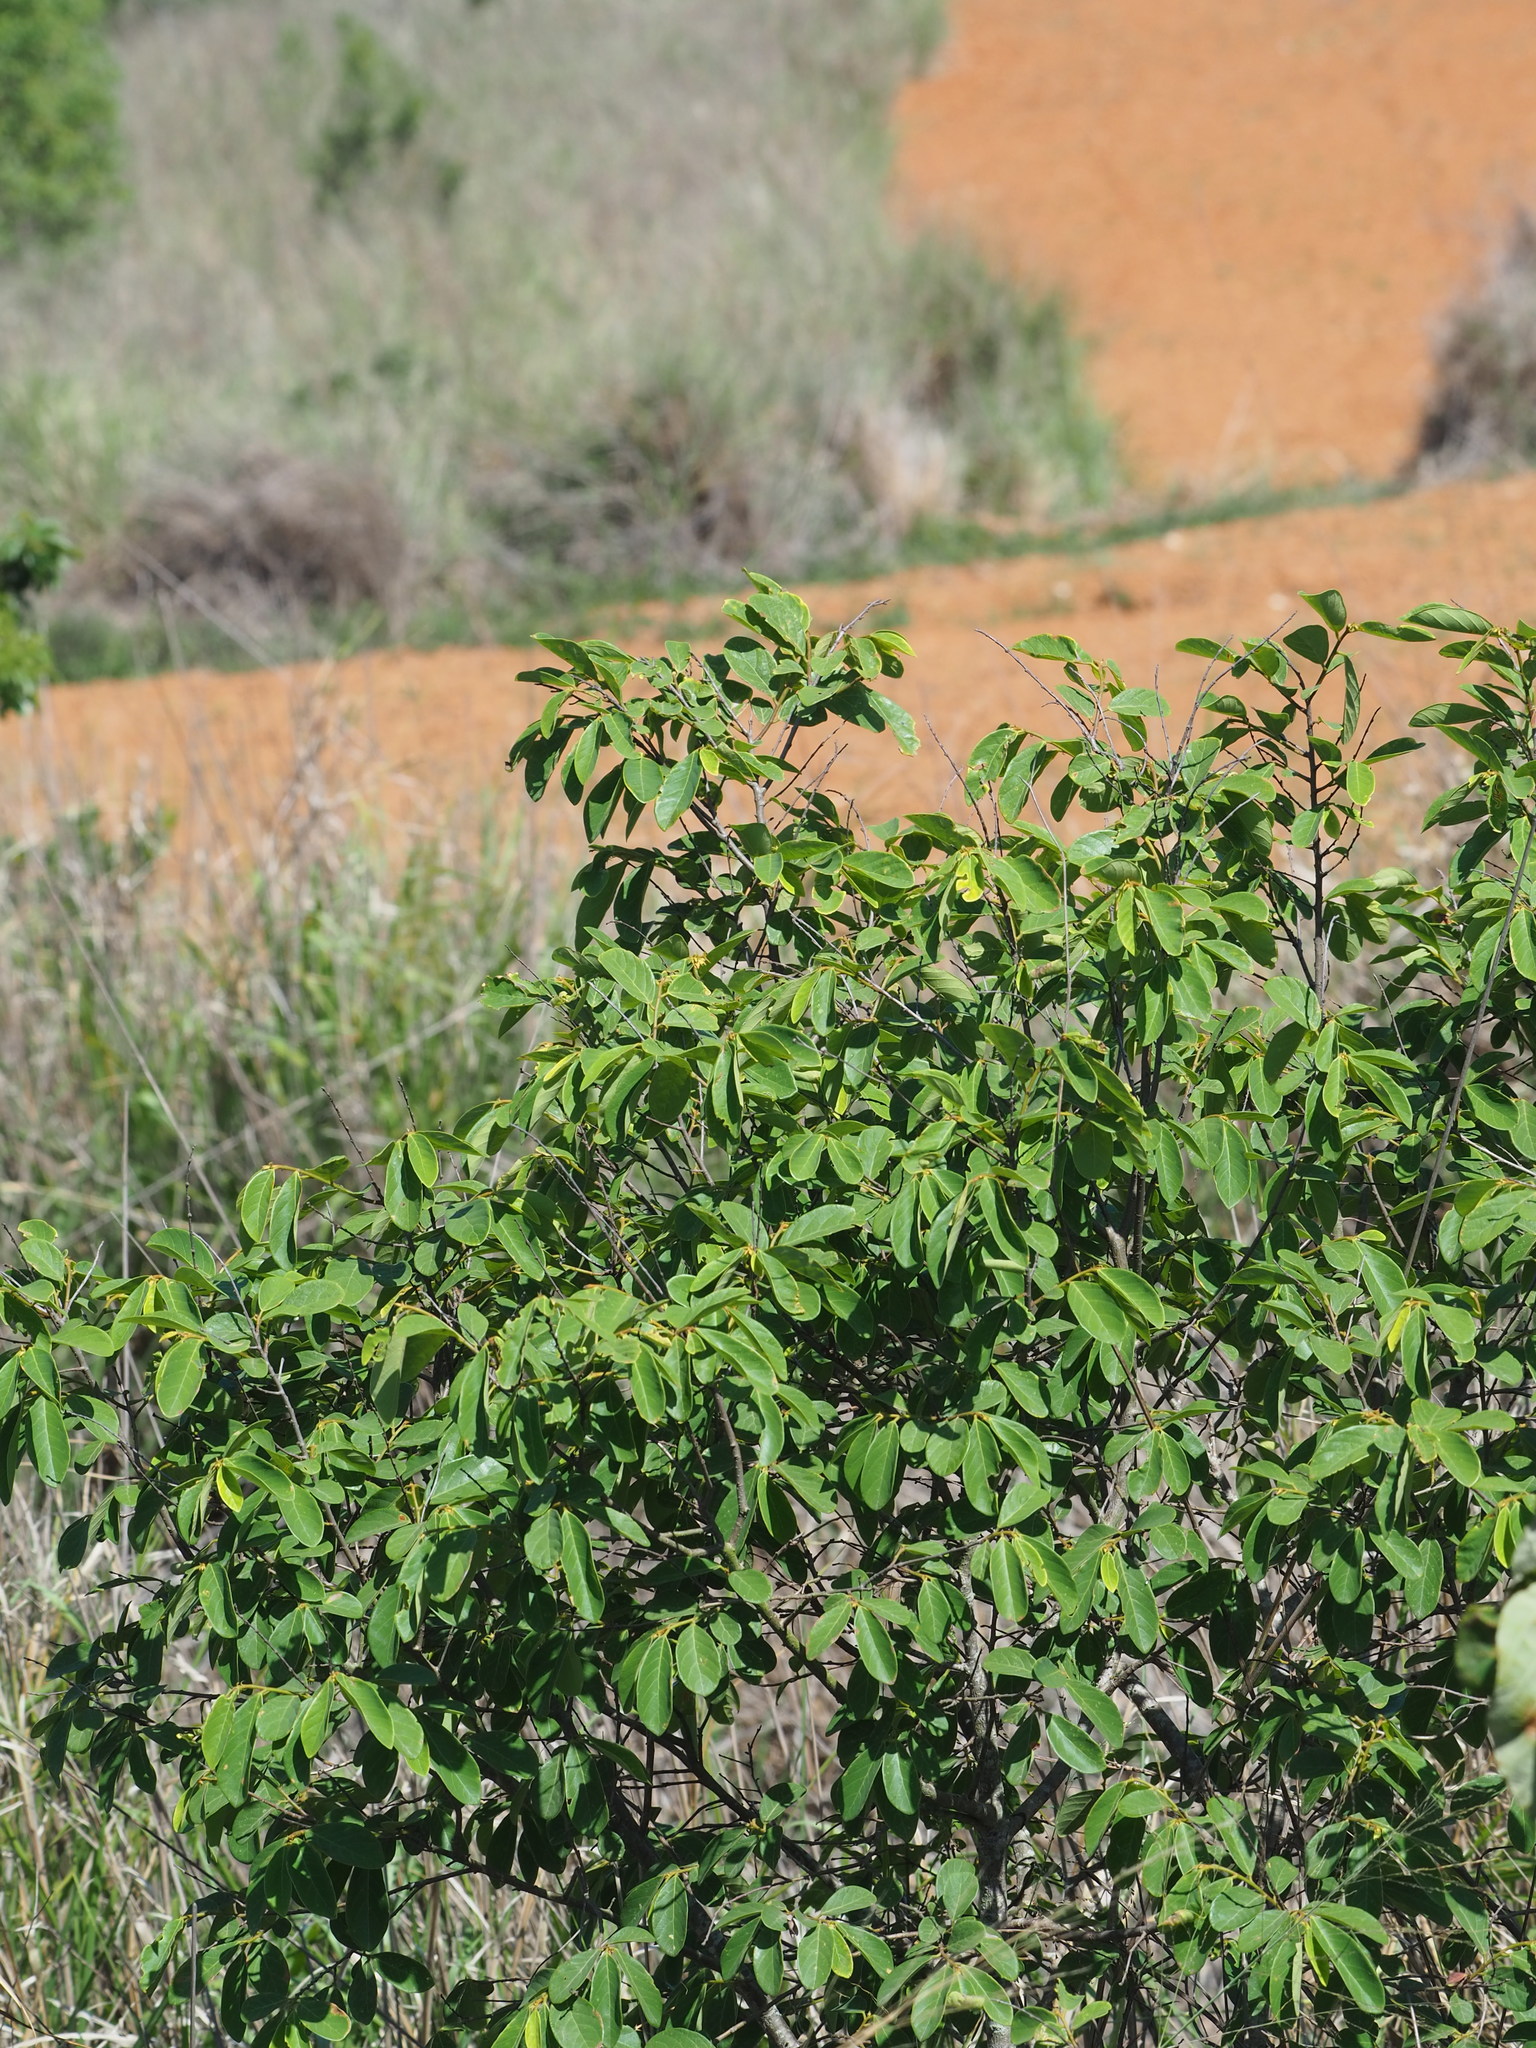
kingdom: Plantae
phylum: Tracheophyta
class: Magnoliopsida
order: Malpighiales
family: Phyllanthaceae
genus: Bridelia
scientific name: Bridelia tomentosa
